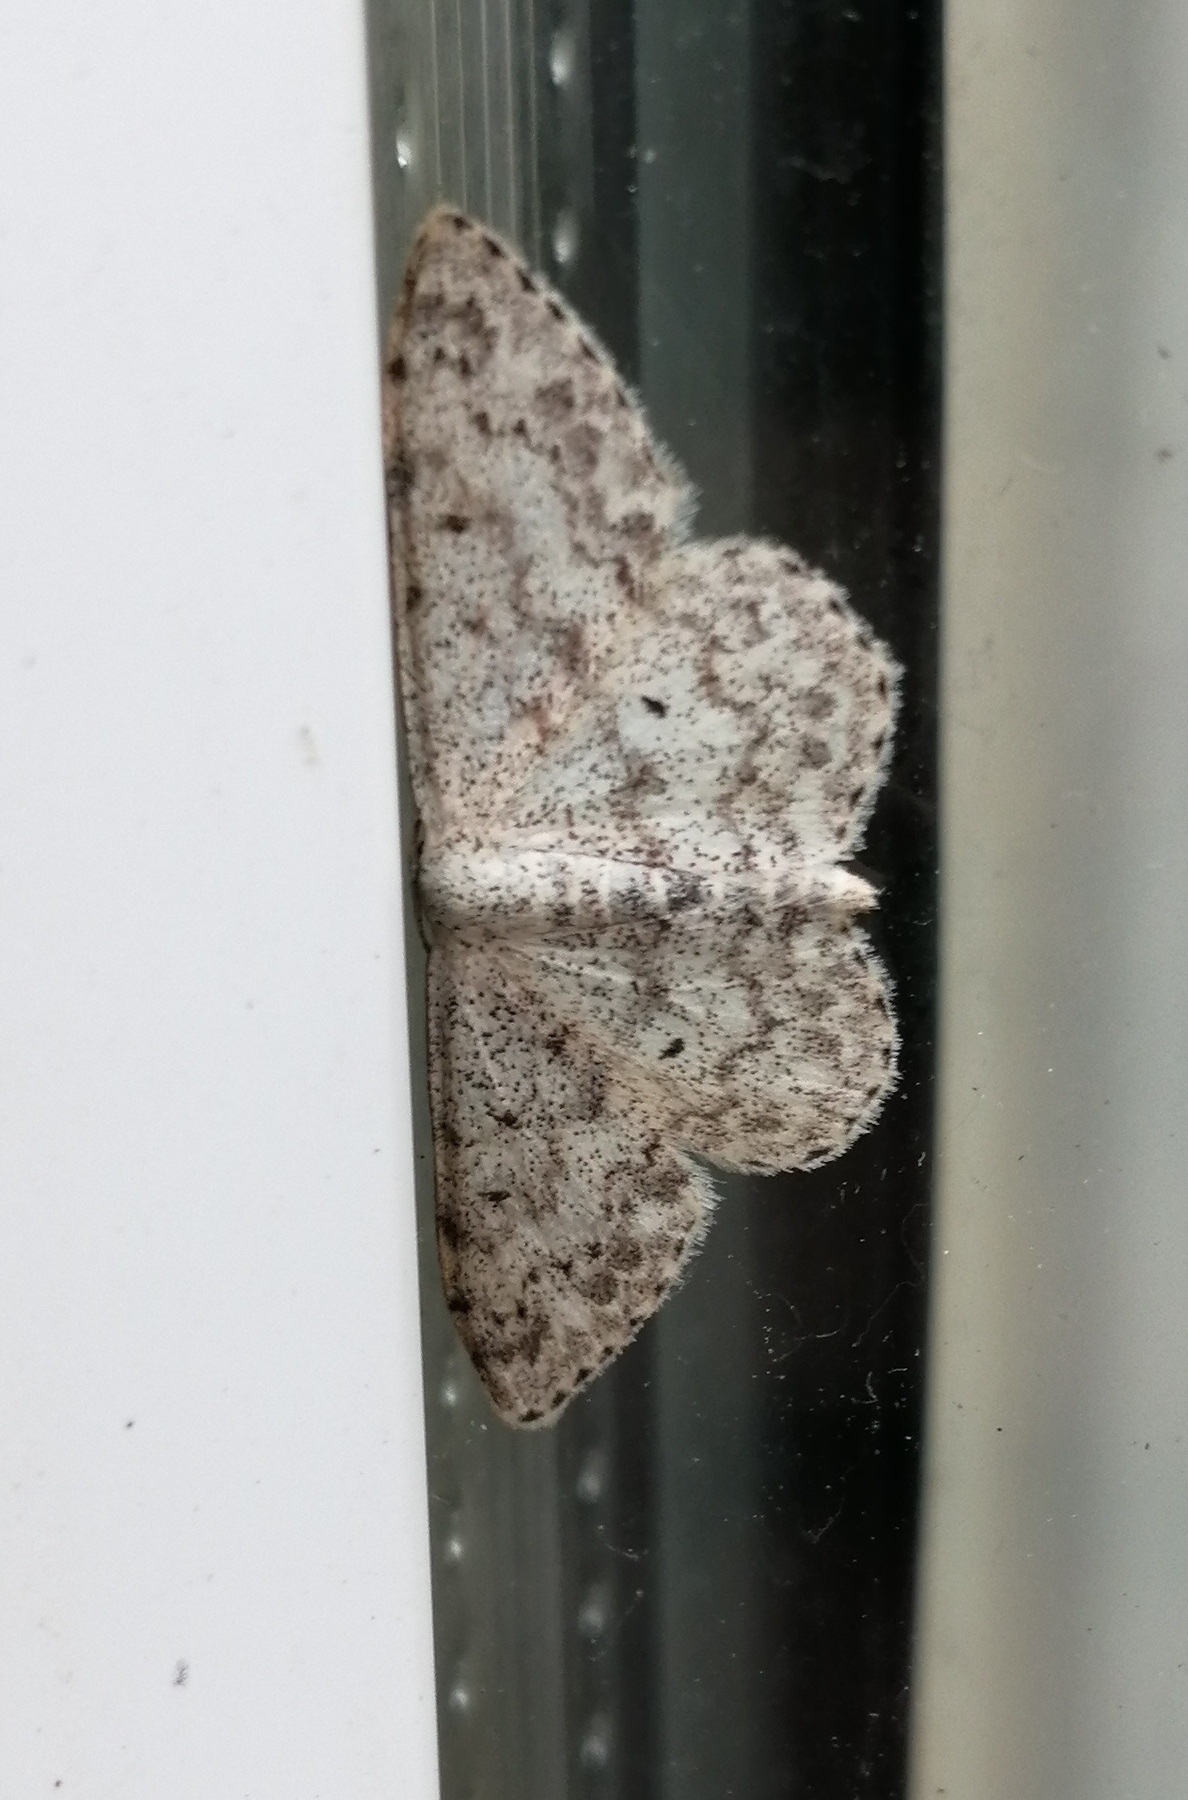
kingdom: Animalia
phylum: Arthropoda
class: Insecta
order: Lepidoptera
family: Geometridae
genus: Scopula
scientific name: Scopula marginepunctata
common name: Mullein wave
